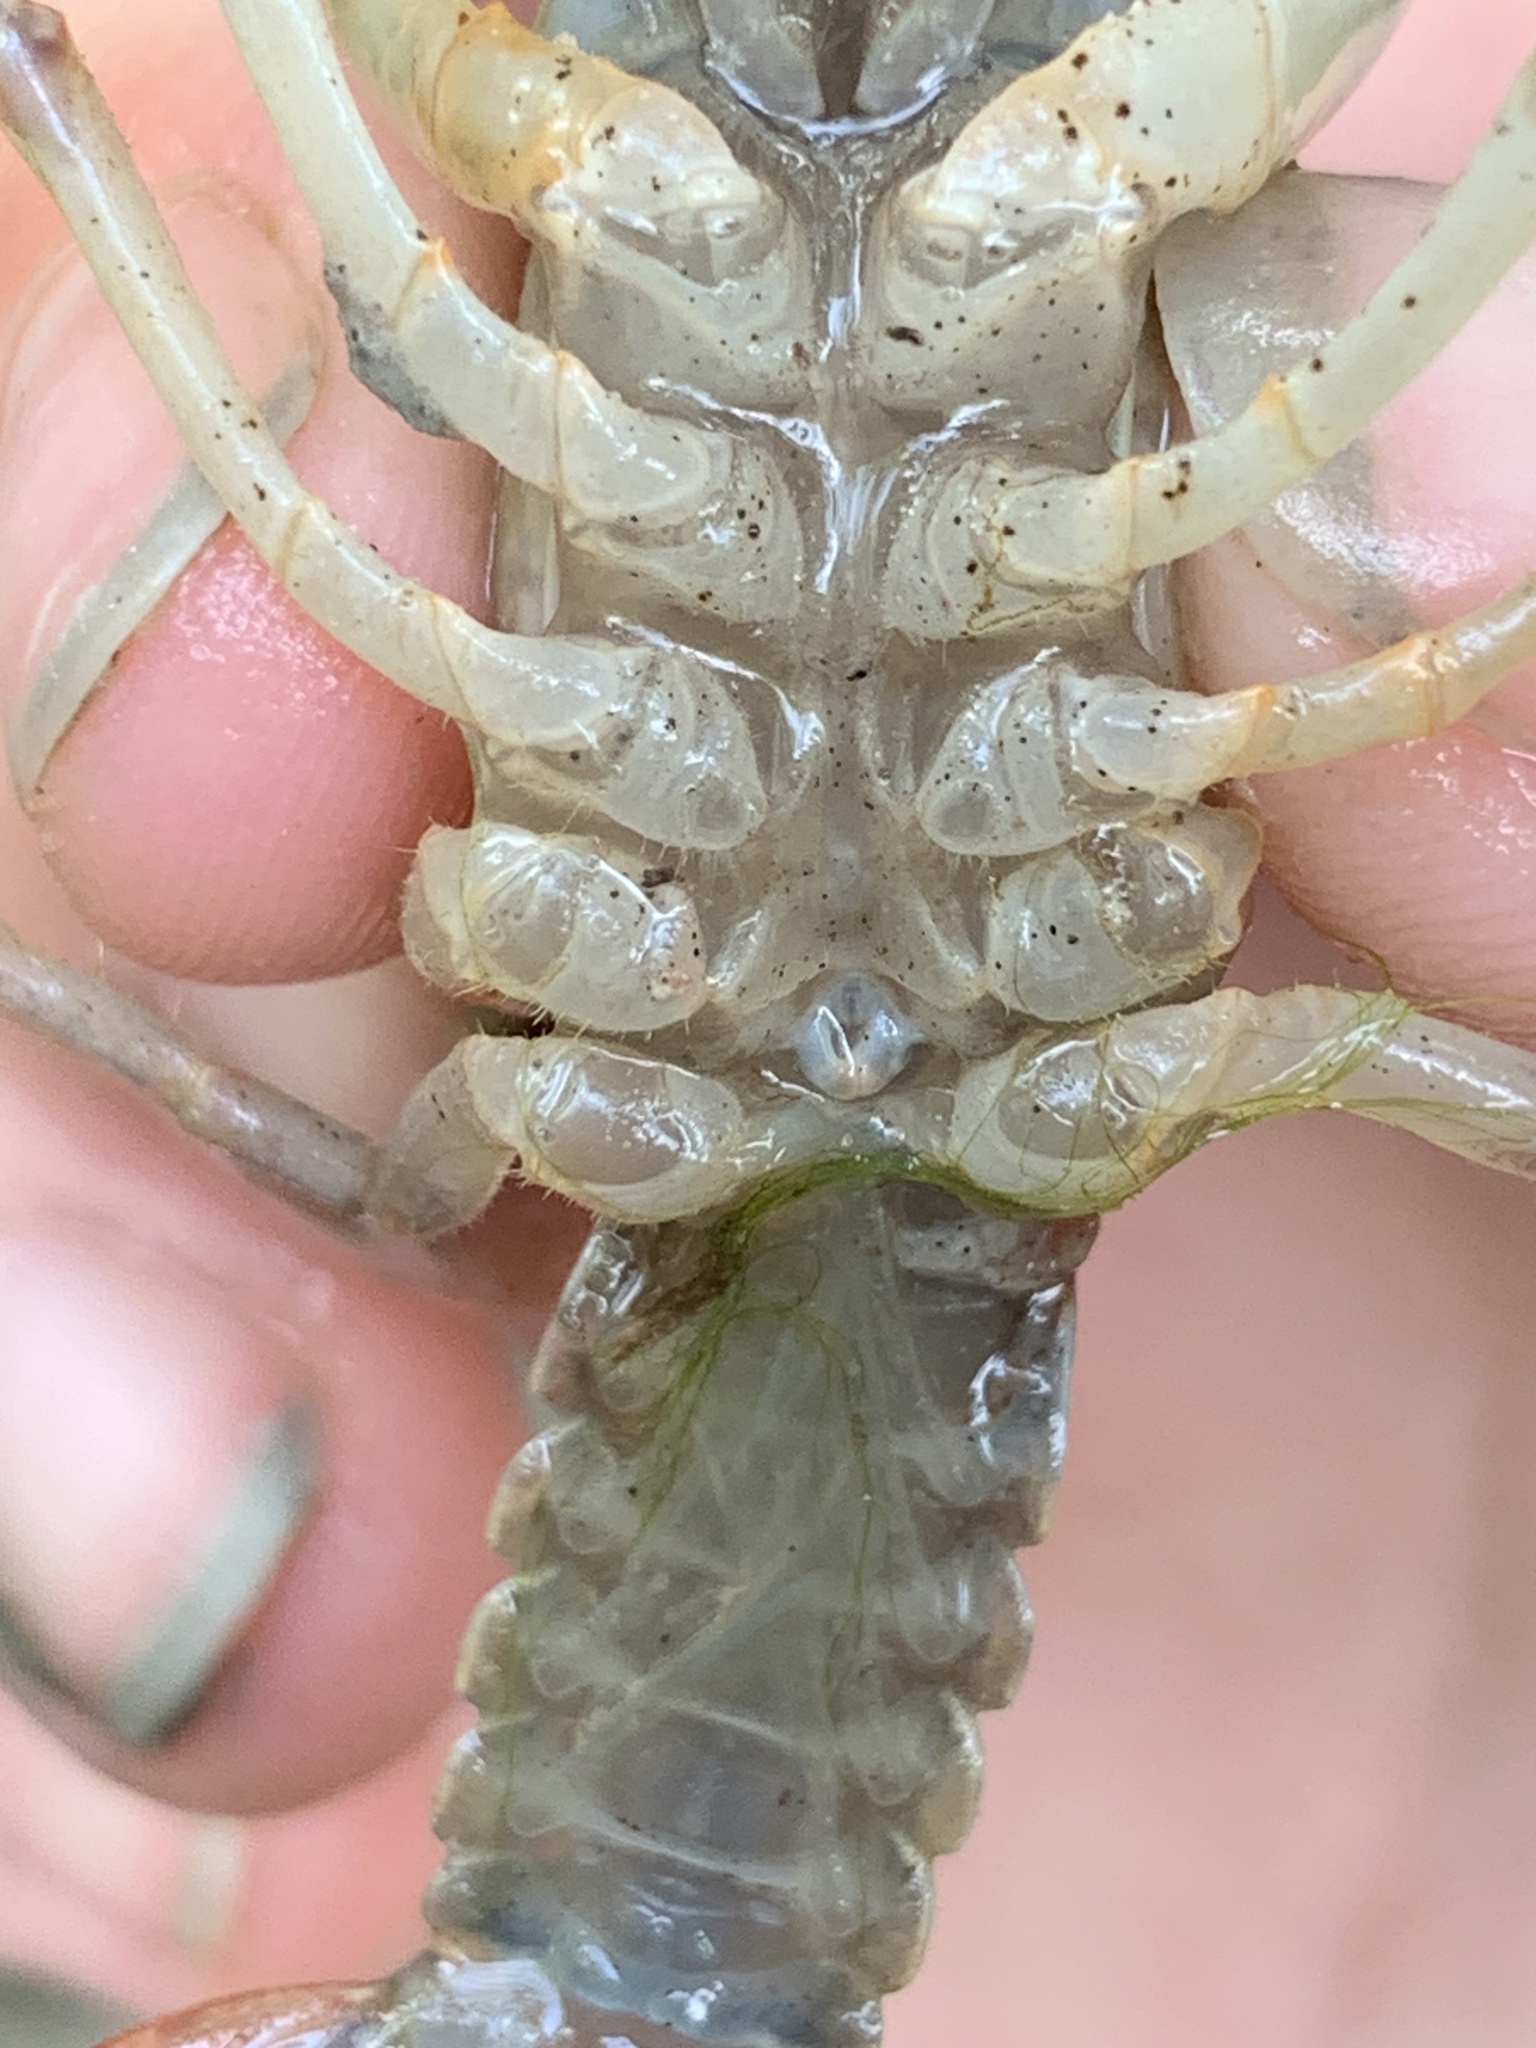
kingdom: Animalia
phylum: Arthropoda
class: Malacostraca
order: Decapoda
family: Cambaridae
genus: Lacunicambarus
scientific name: Lacunicambarus ludovicianus
